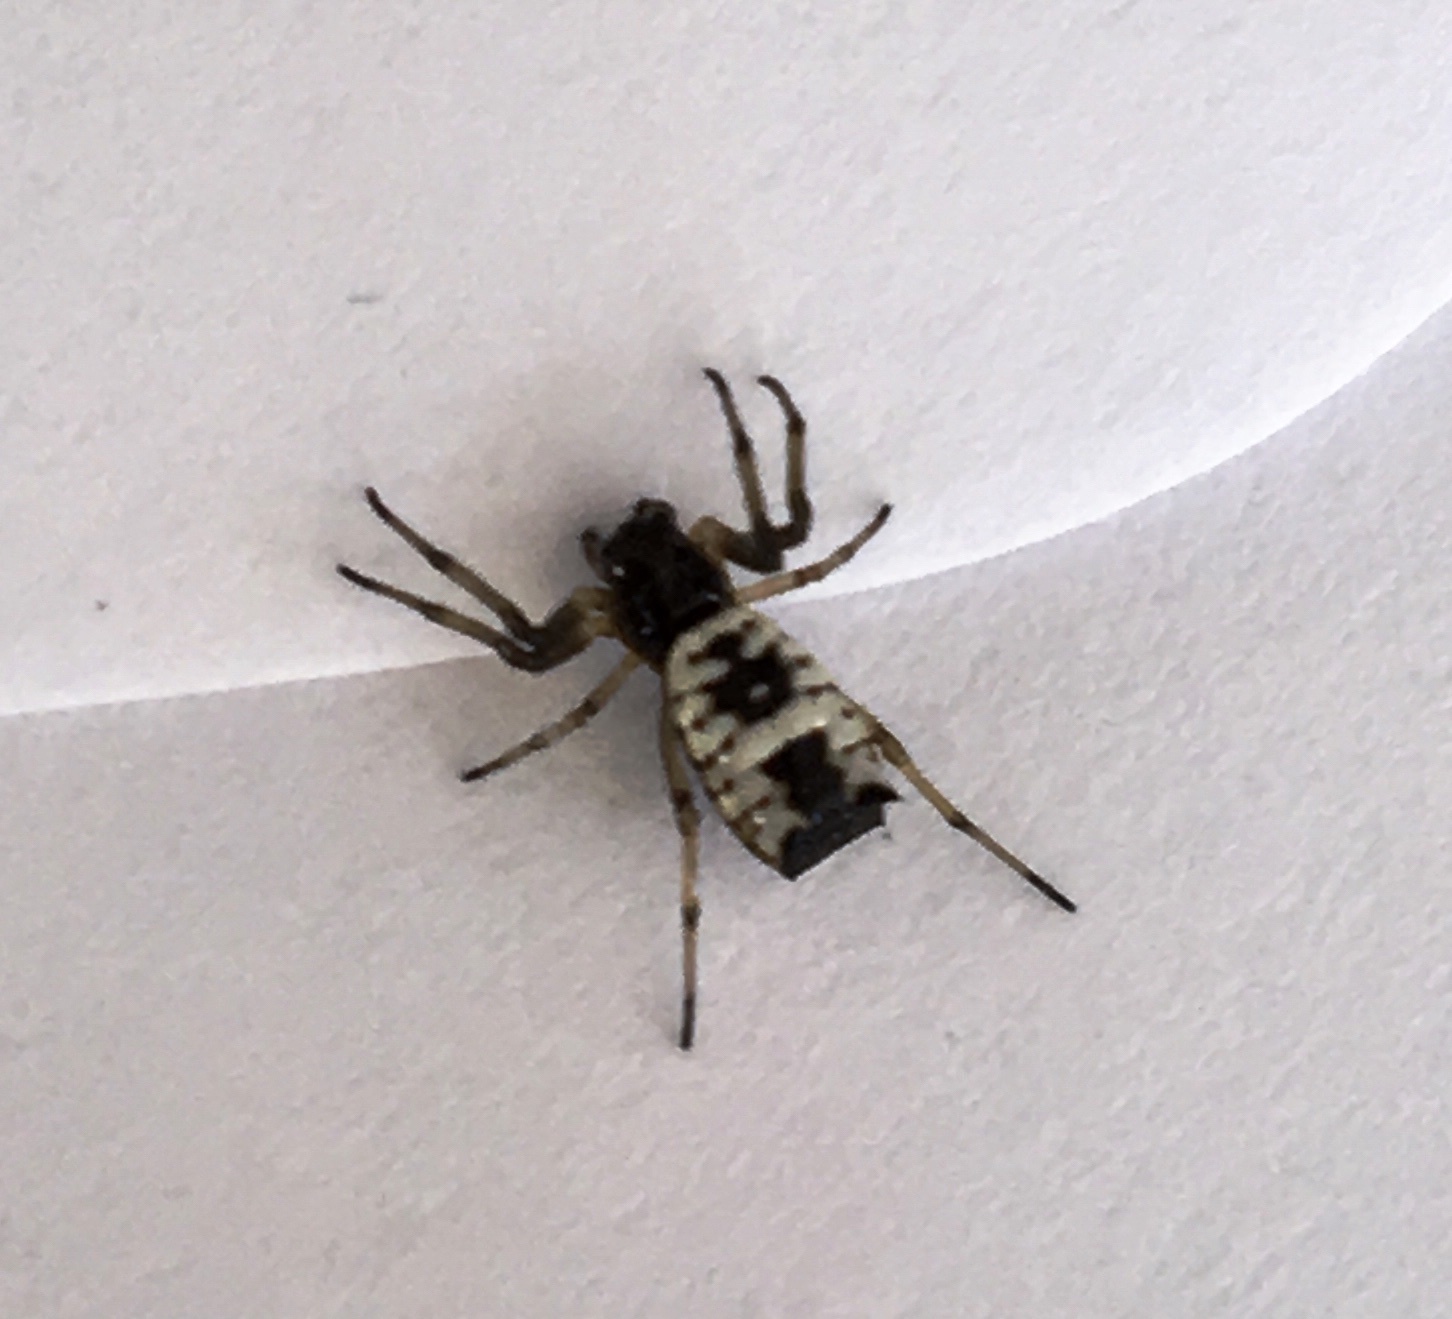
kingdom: Animalia
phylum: Arthropoda
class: Arachnida
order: Araneae
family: Araneidae
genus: Micrathena
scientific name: Micrathena mitrata
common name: Orb weavers
